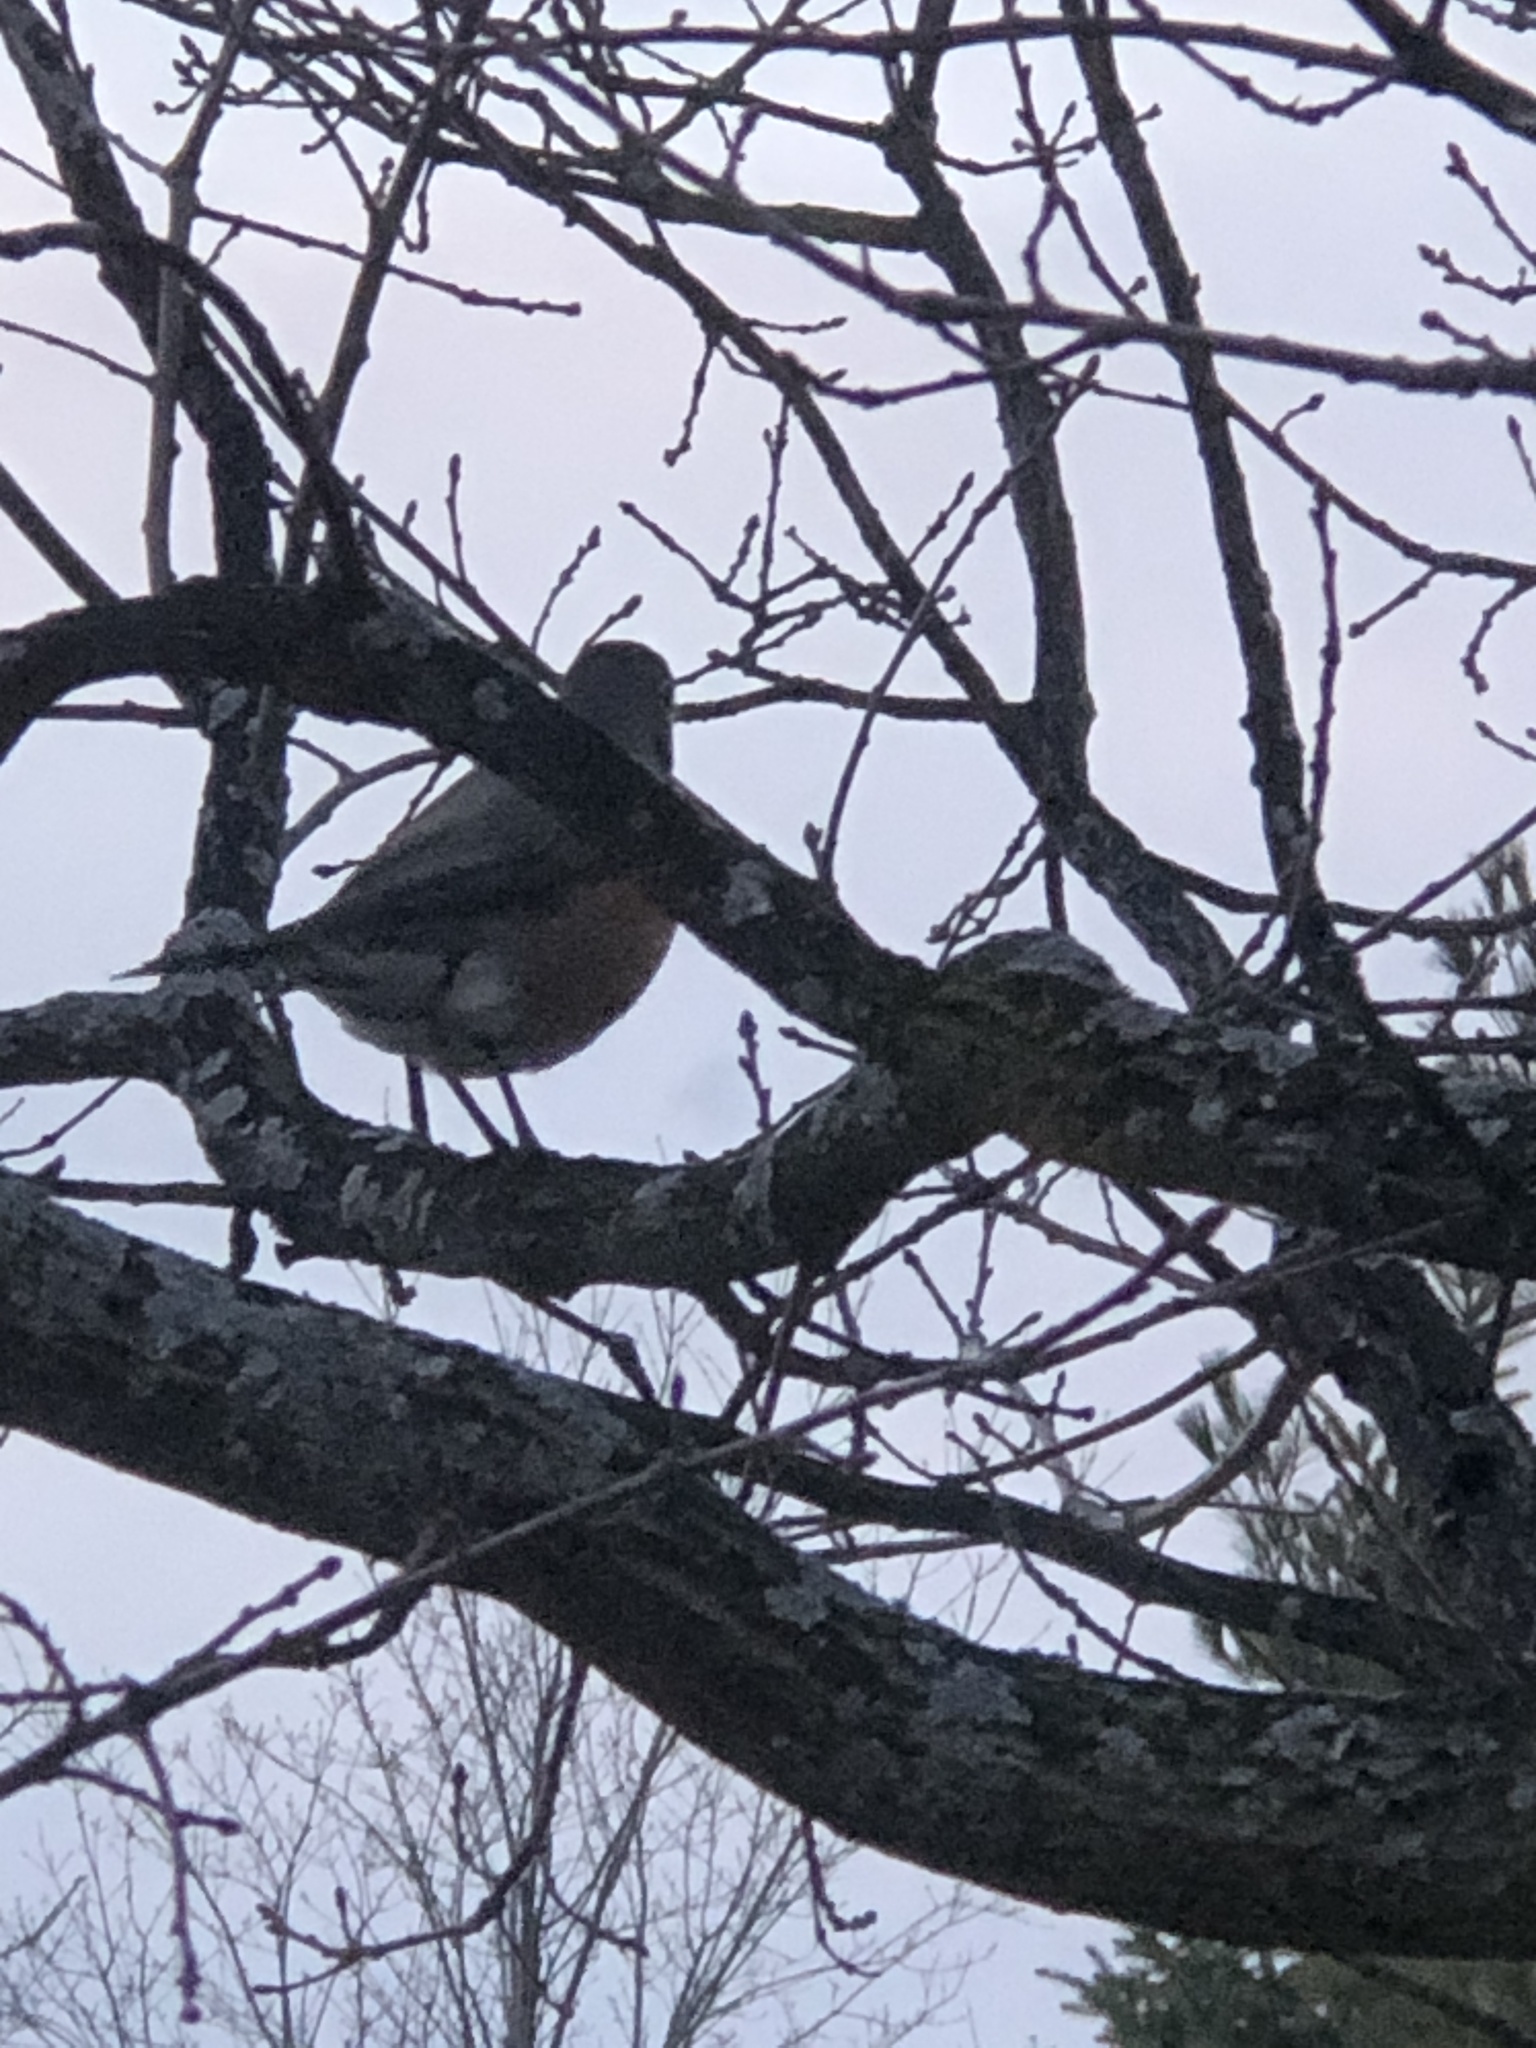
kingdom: Animalia
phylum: Chordata
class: Aves
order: Passeriformes
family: Turdidae
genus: Turdus
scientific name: Turdus migratorius
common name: American robin
